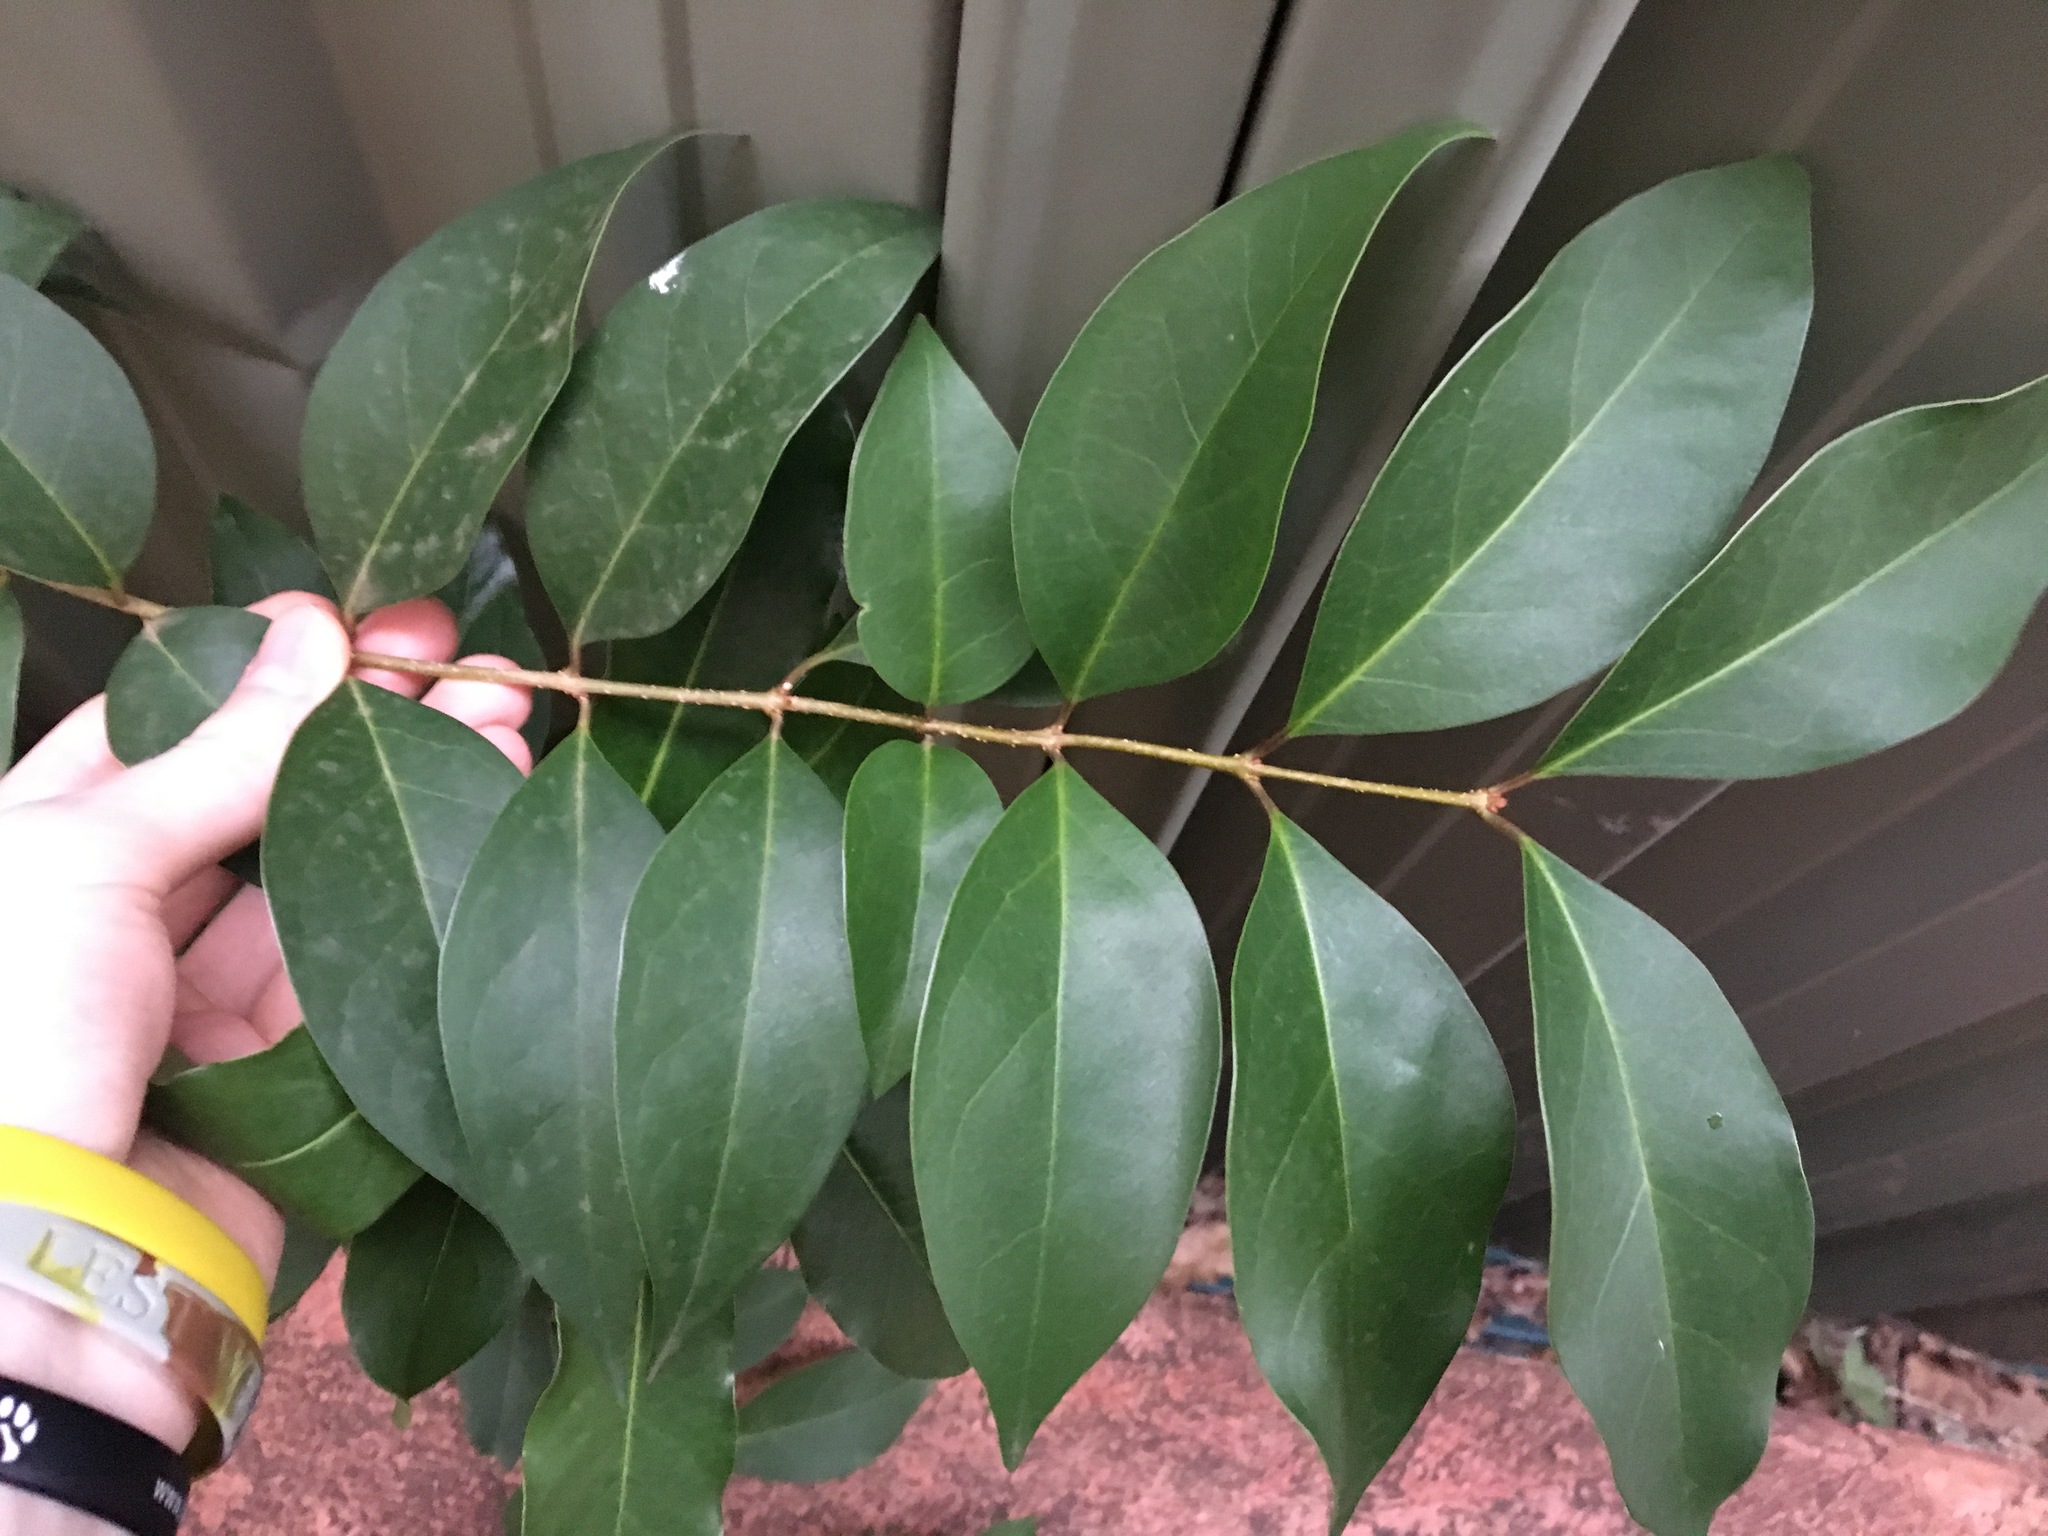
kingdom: Plantae
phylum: Tracheophyta
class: Magnoliopsida
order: Lamiales
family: Oleaceae
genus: Ligustrum
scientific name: Ligustrum lucidum
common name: Glossy privet
